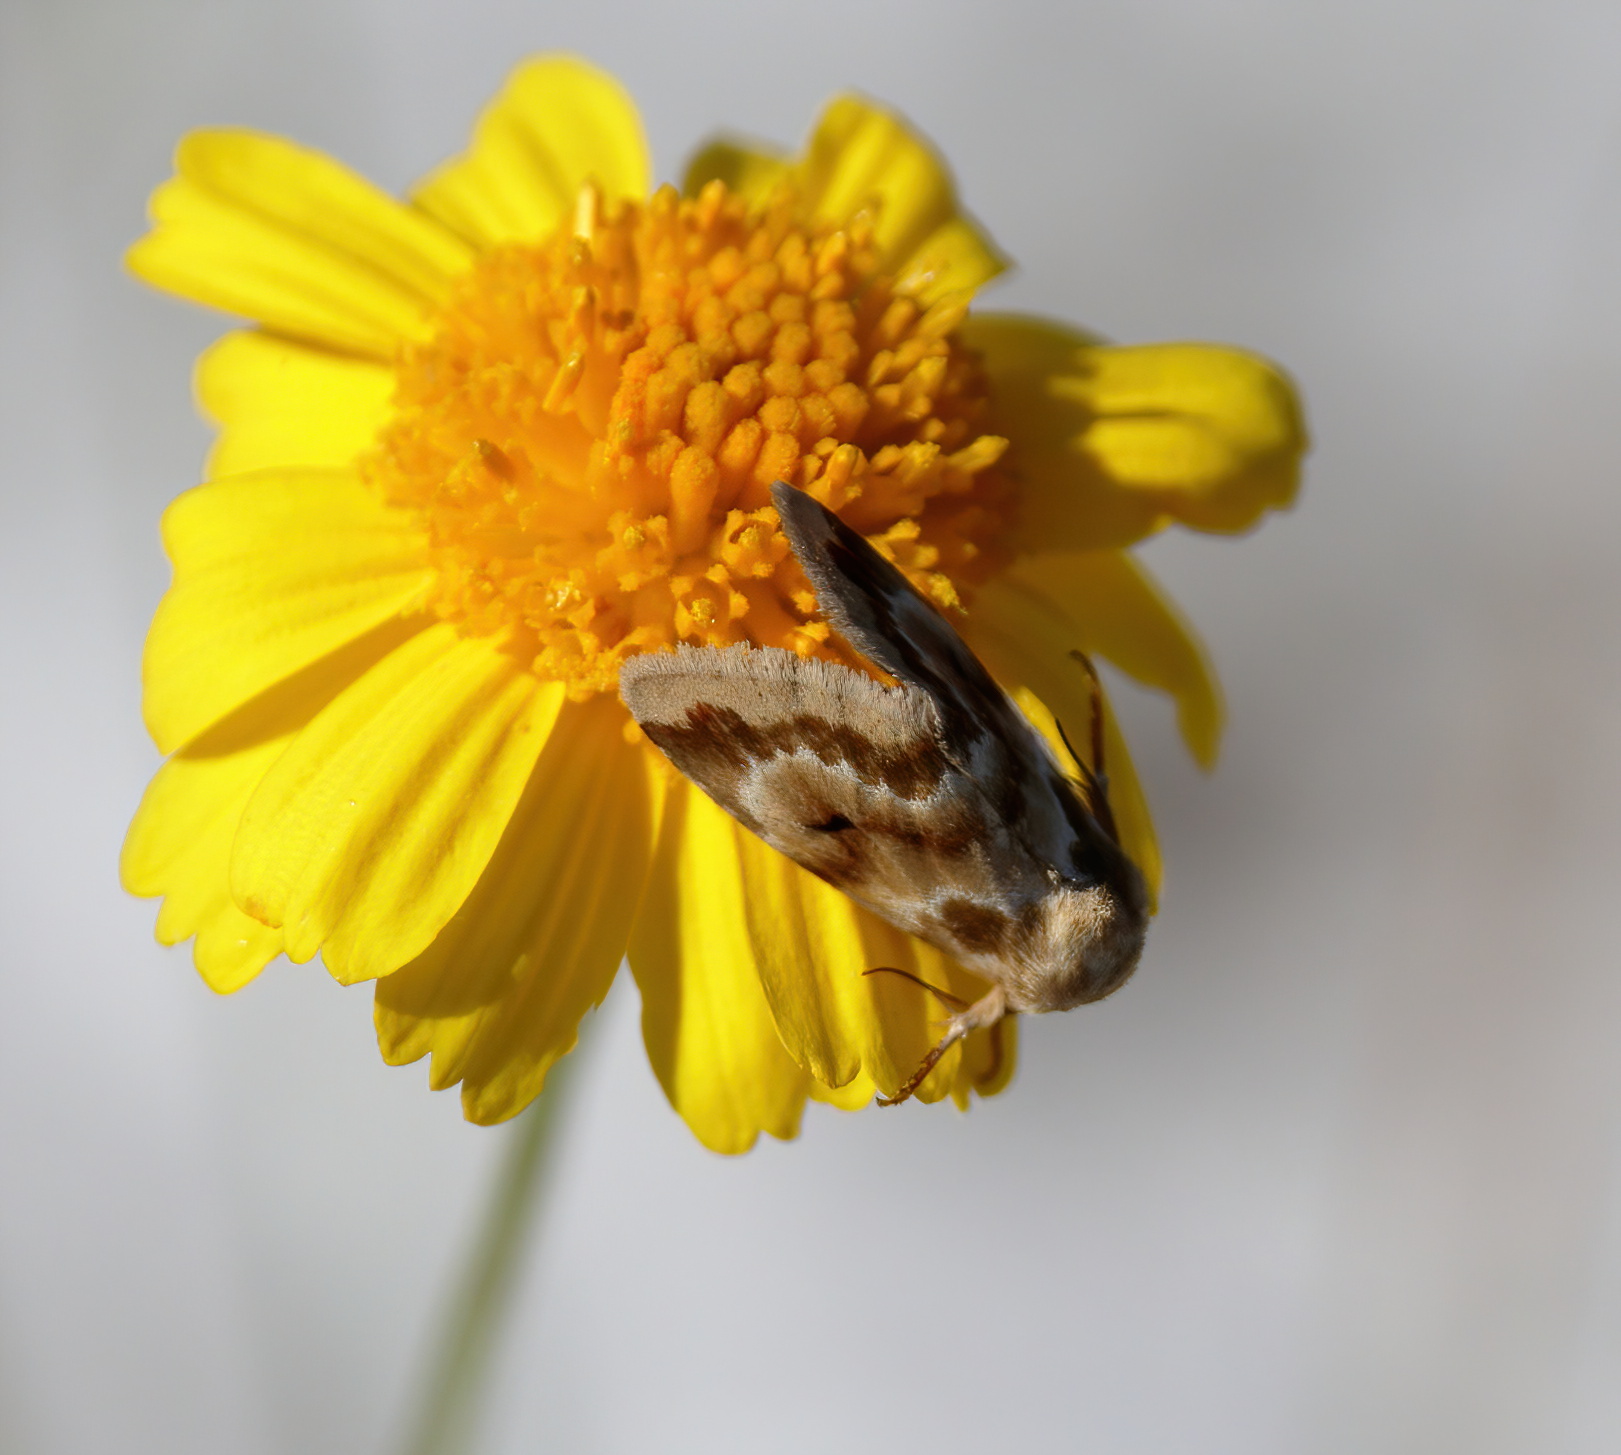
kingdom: Animalia
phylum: Arthropoda
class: Insecta
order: Lepidoptera
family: Noctuidae
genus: Schinia
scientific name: Schinia fulleri
